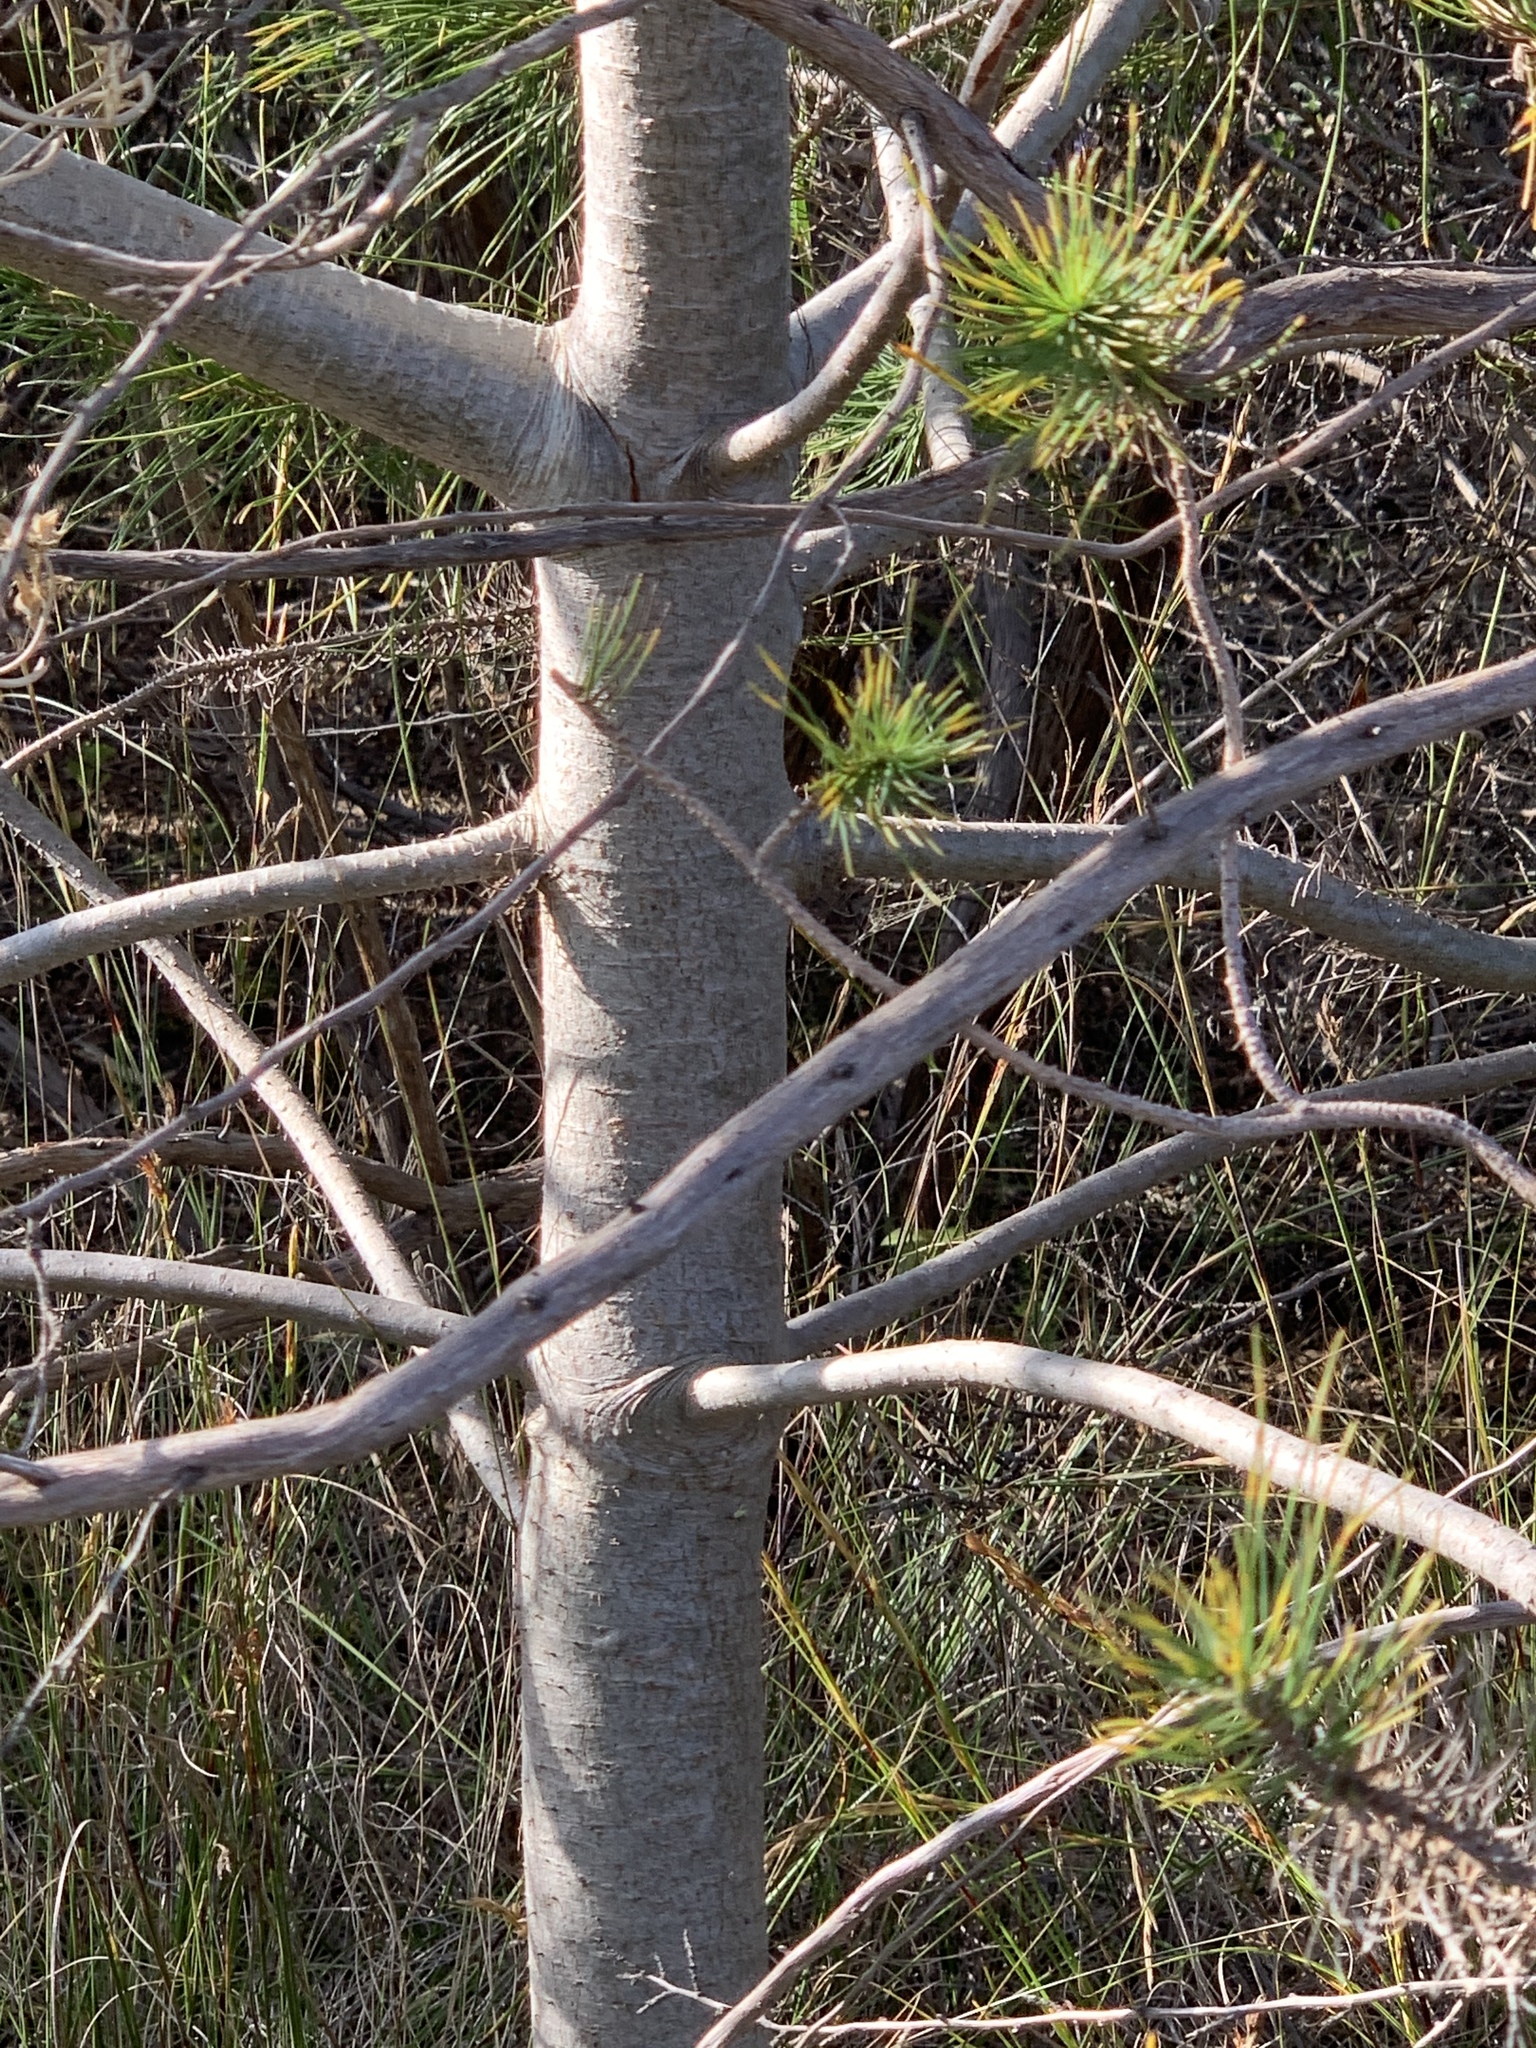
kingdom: Plantae
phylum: Tracheophyta
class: Pinopsida
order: Pinales
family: Pinaceae
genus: Pinus
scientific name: Pinus halepensis
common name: Aleppo pine
